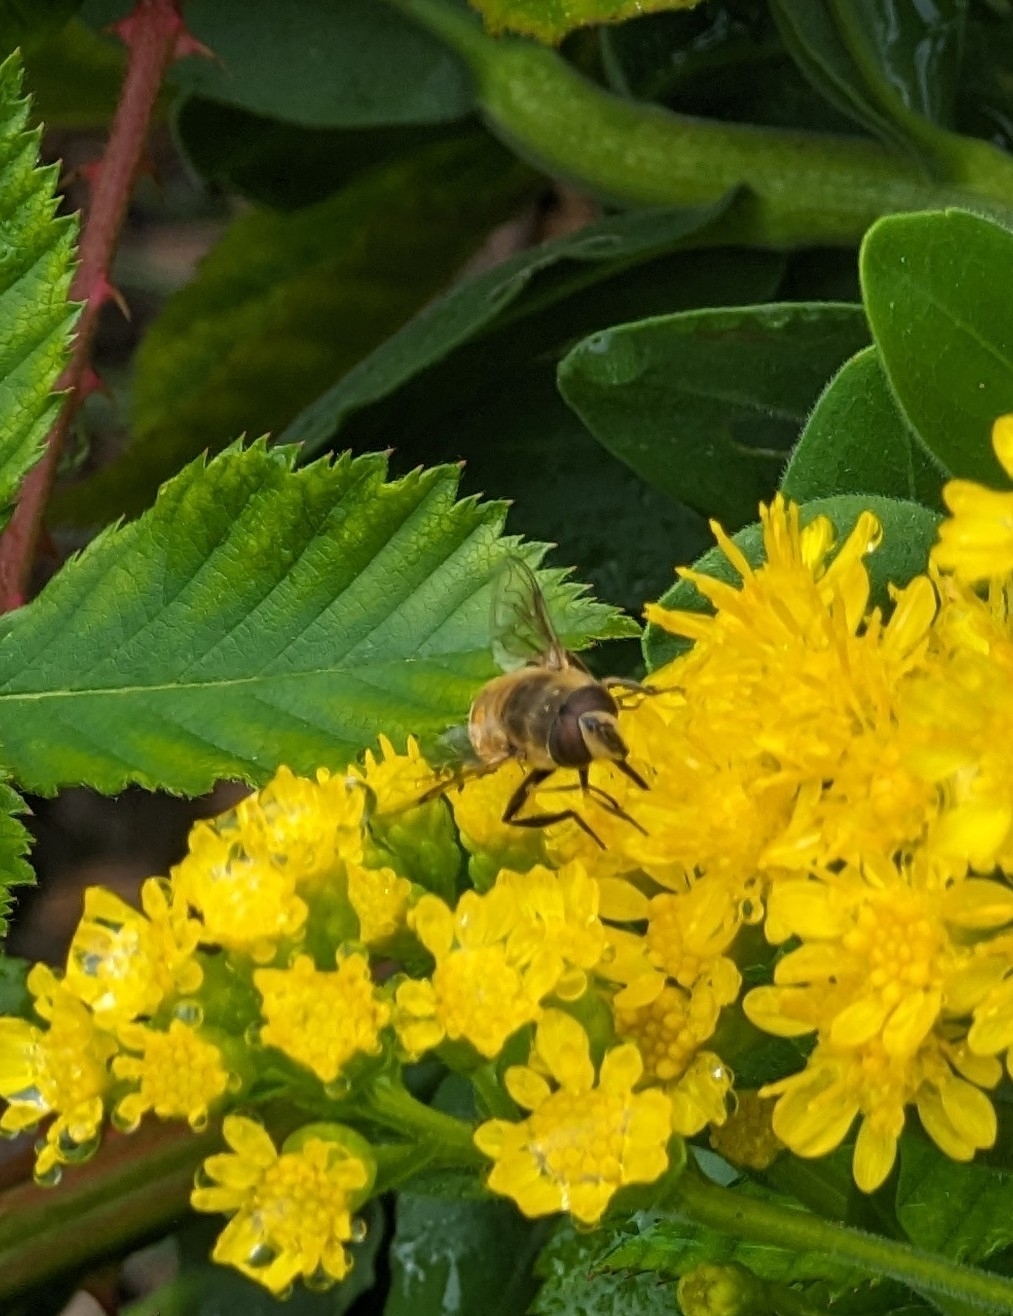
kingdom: Animalia
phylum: Arthropoda
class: Insecta
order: Diptera
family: Syrphidae
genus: Eristalis
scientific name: Eristalis tenax
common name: Drone fly
